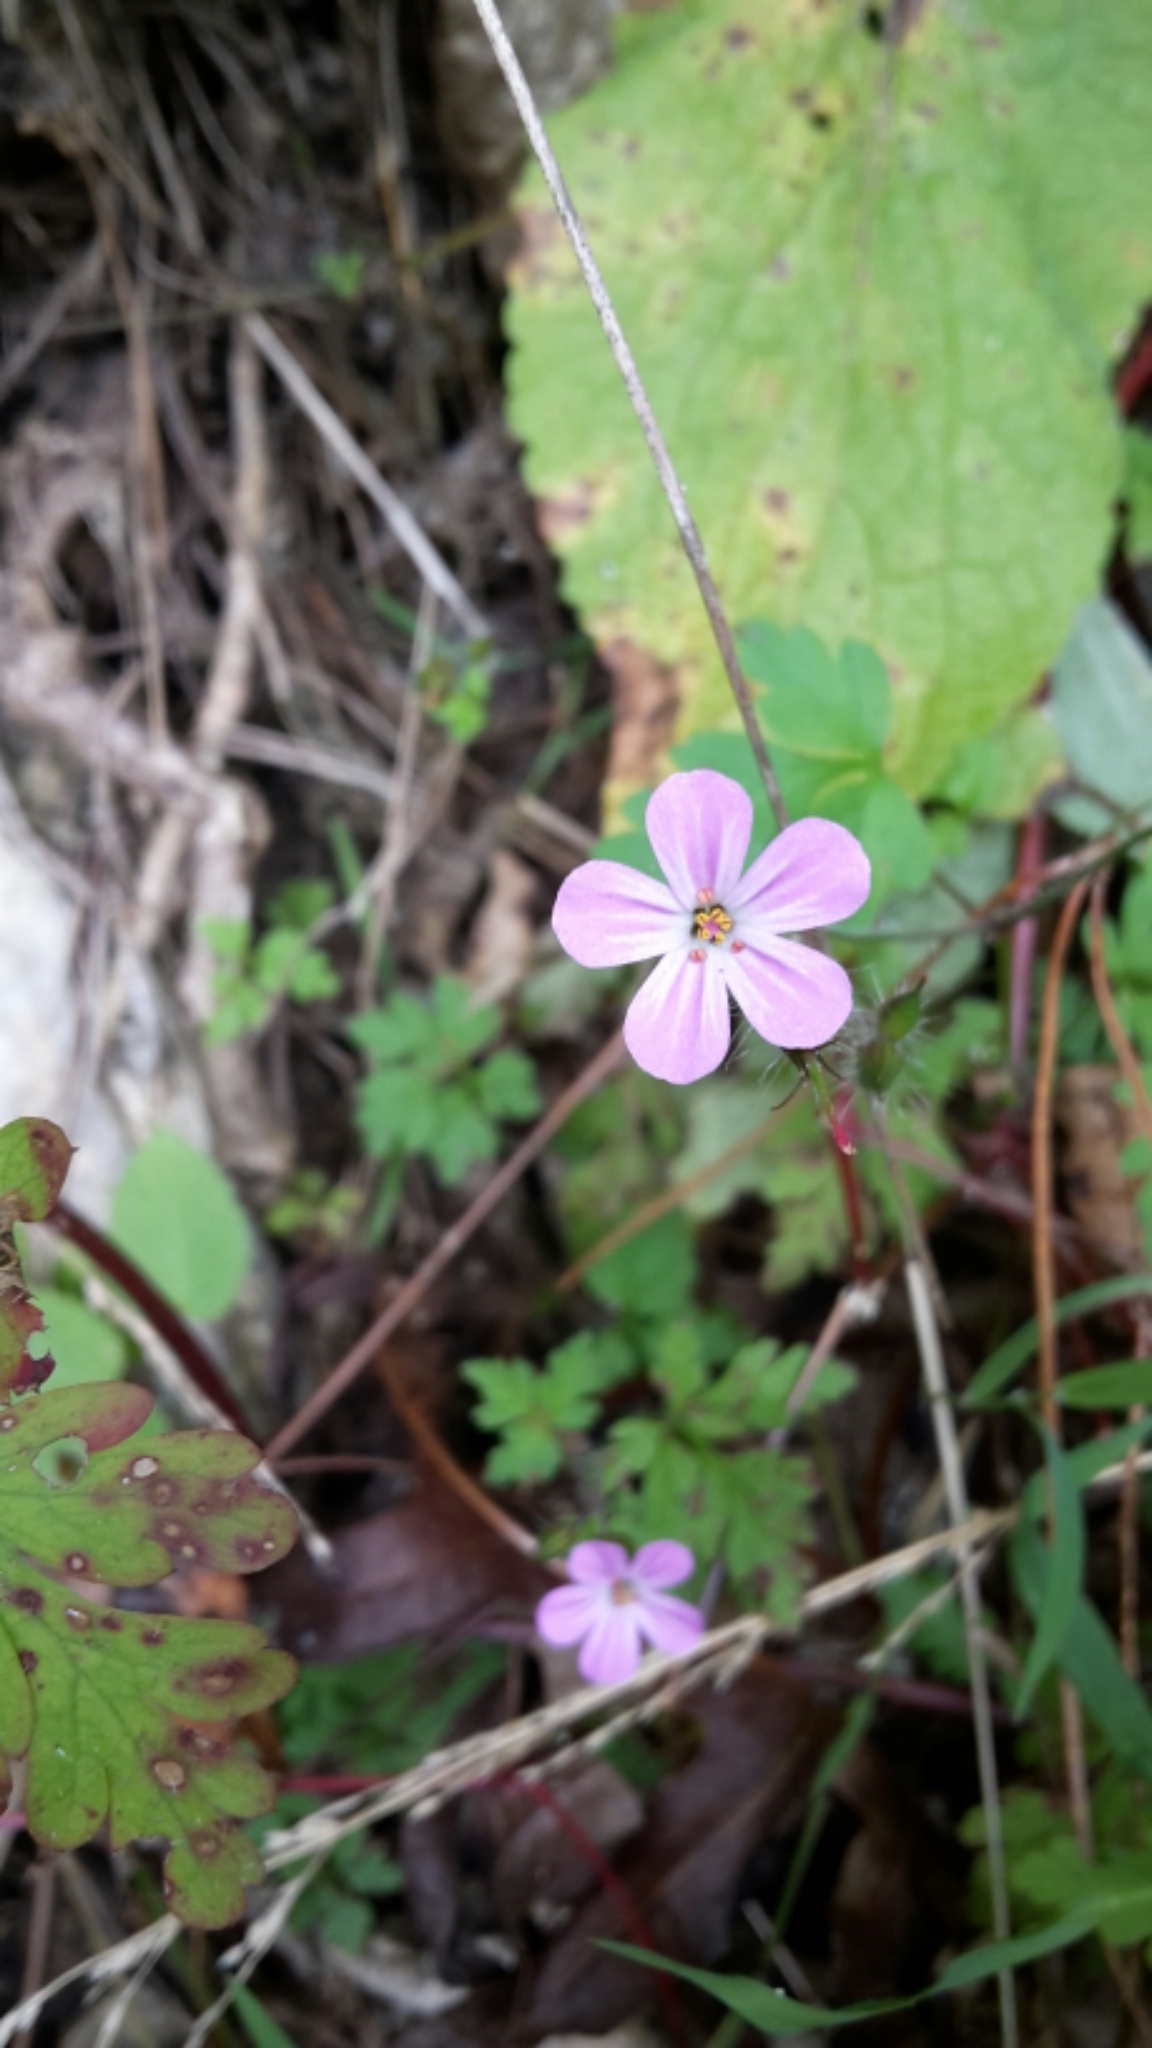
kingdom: Plantae
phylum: Tracheophyta
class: Magnoliopsida
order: Geraniales
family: Geraniaceae
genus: Geranium
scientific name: Geranium robertianum
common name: Herb-robert
